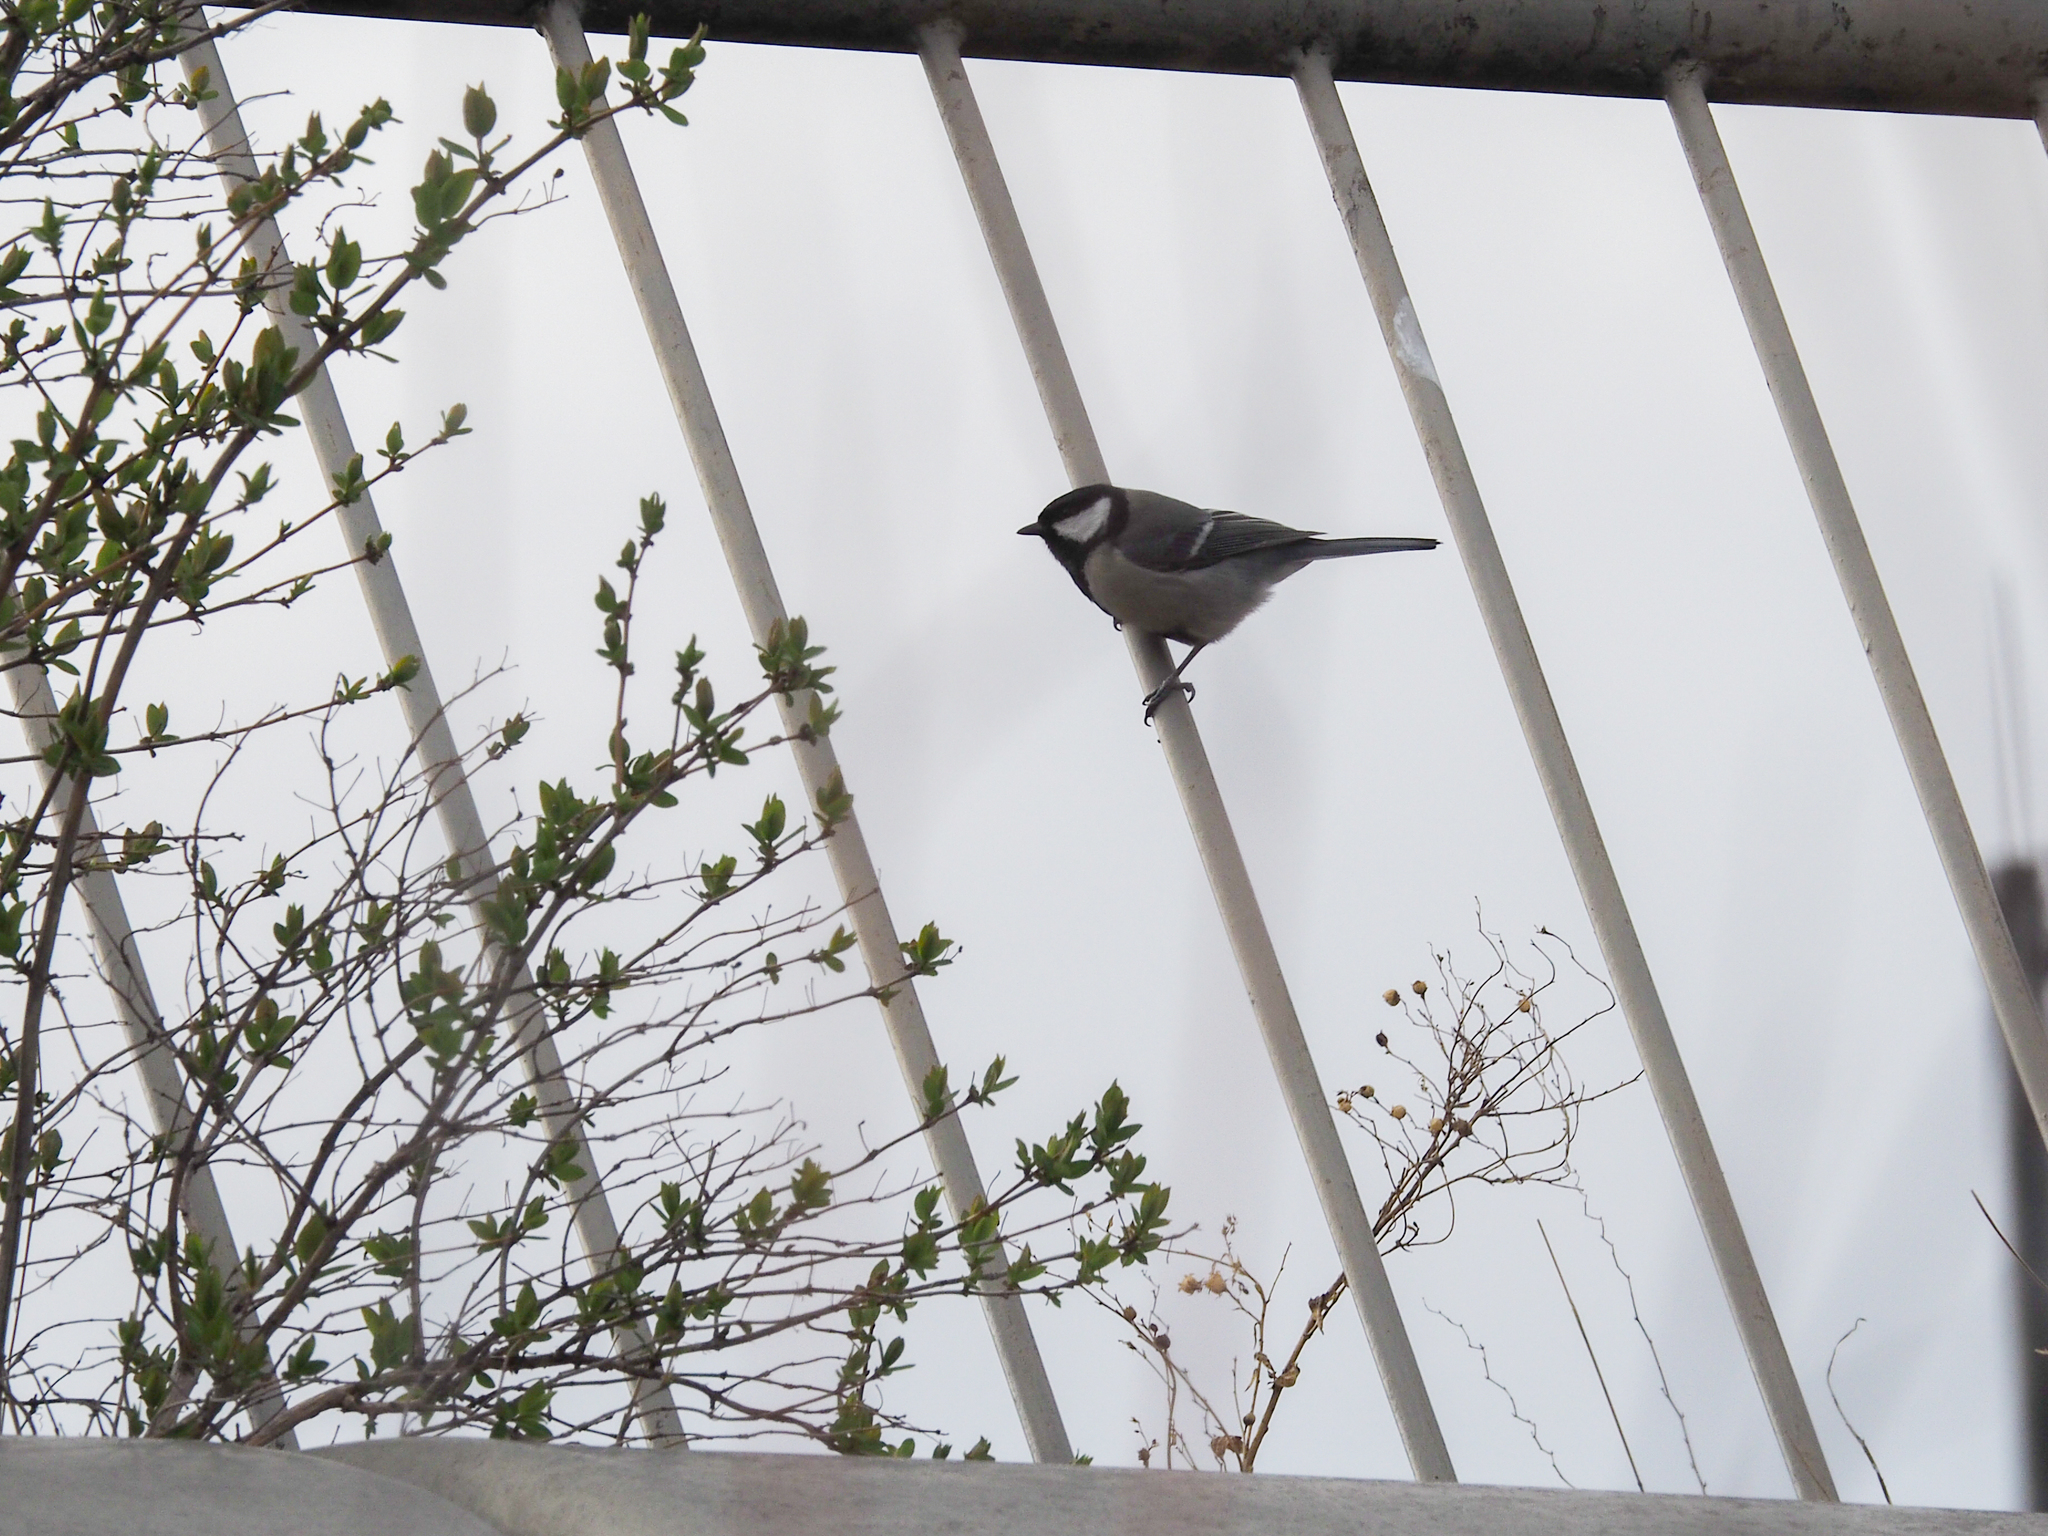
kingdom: Animalia
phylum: Chordata
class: Aves
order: Passeriformes
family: Paridae
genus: Parus
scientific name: Parus major
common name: Great tit
